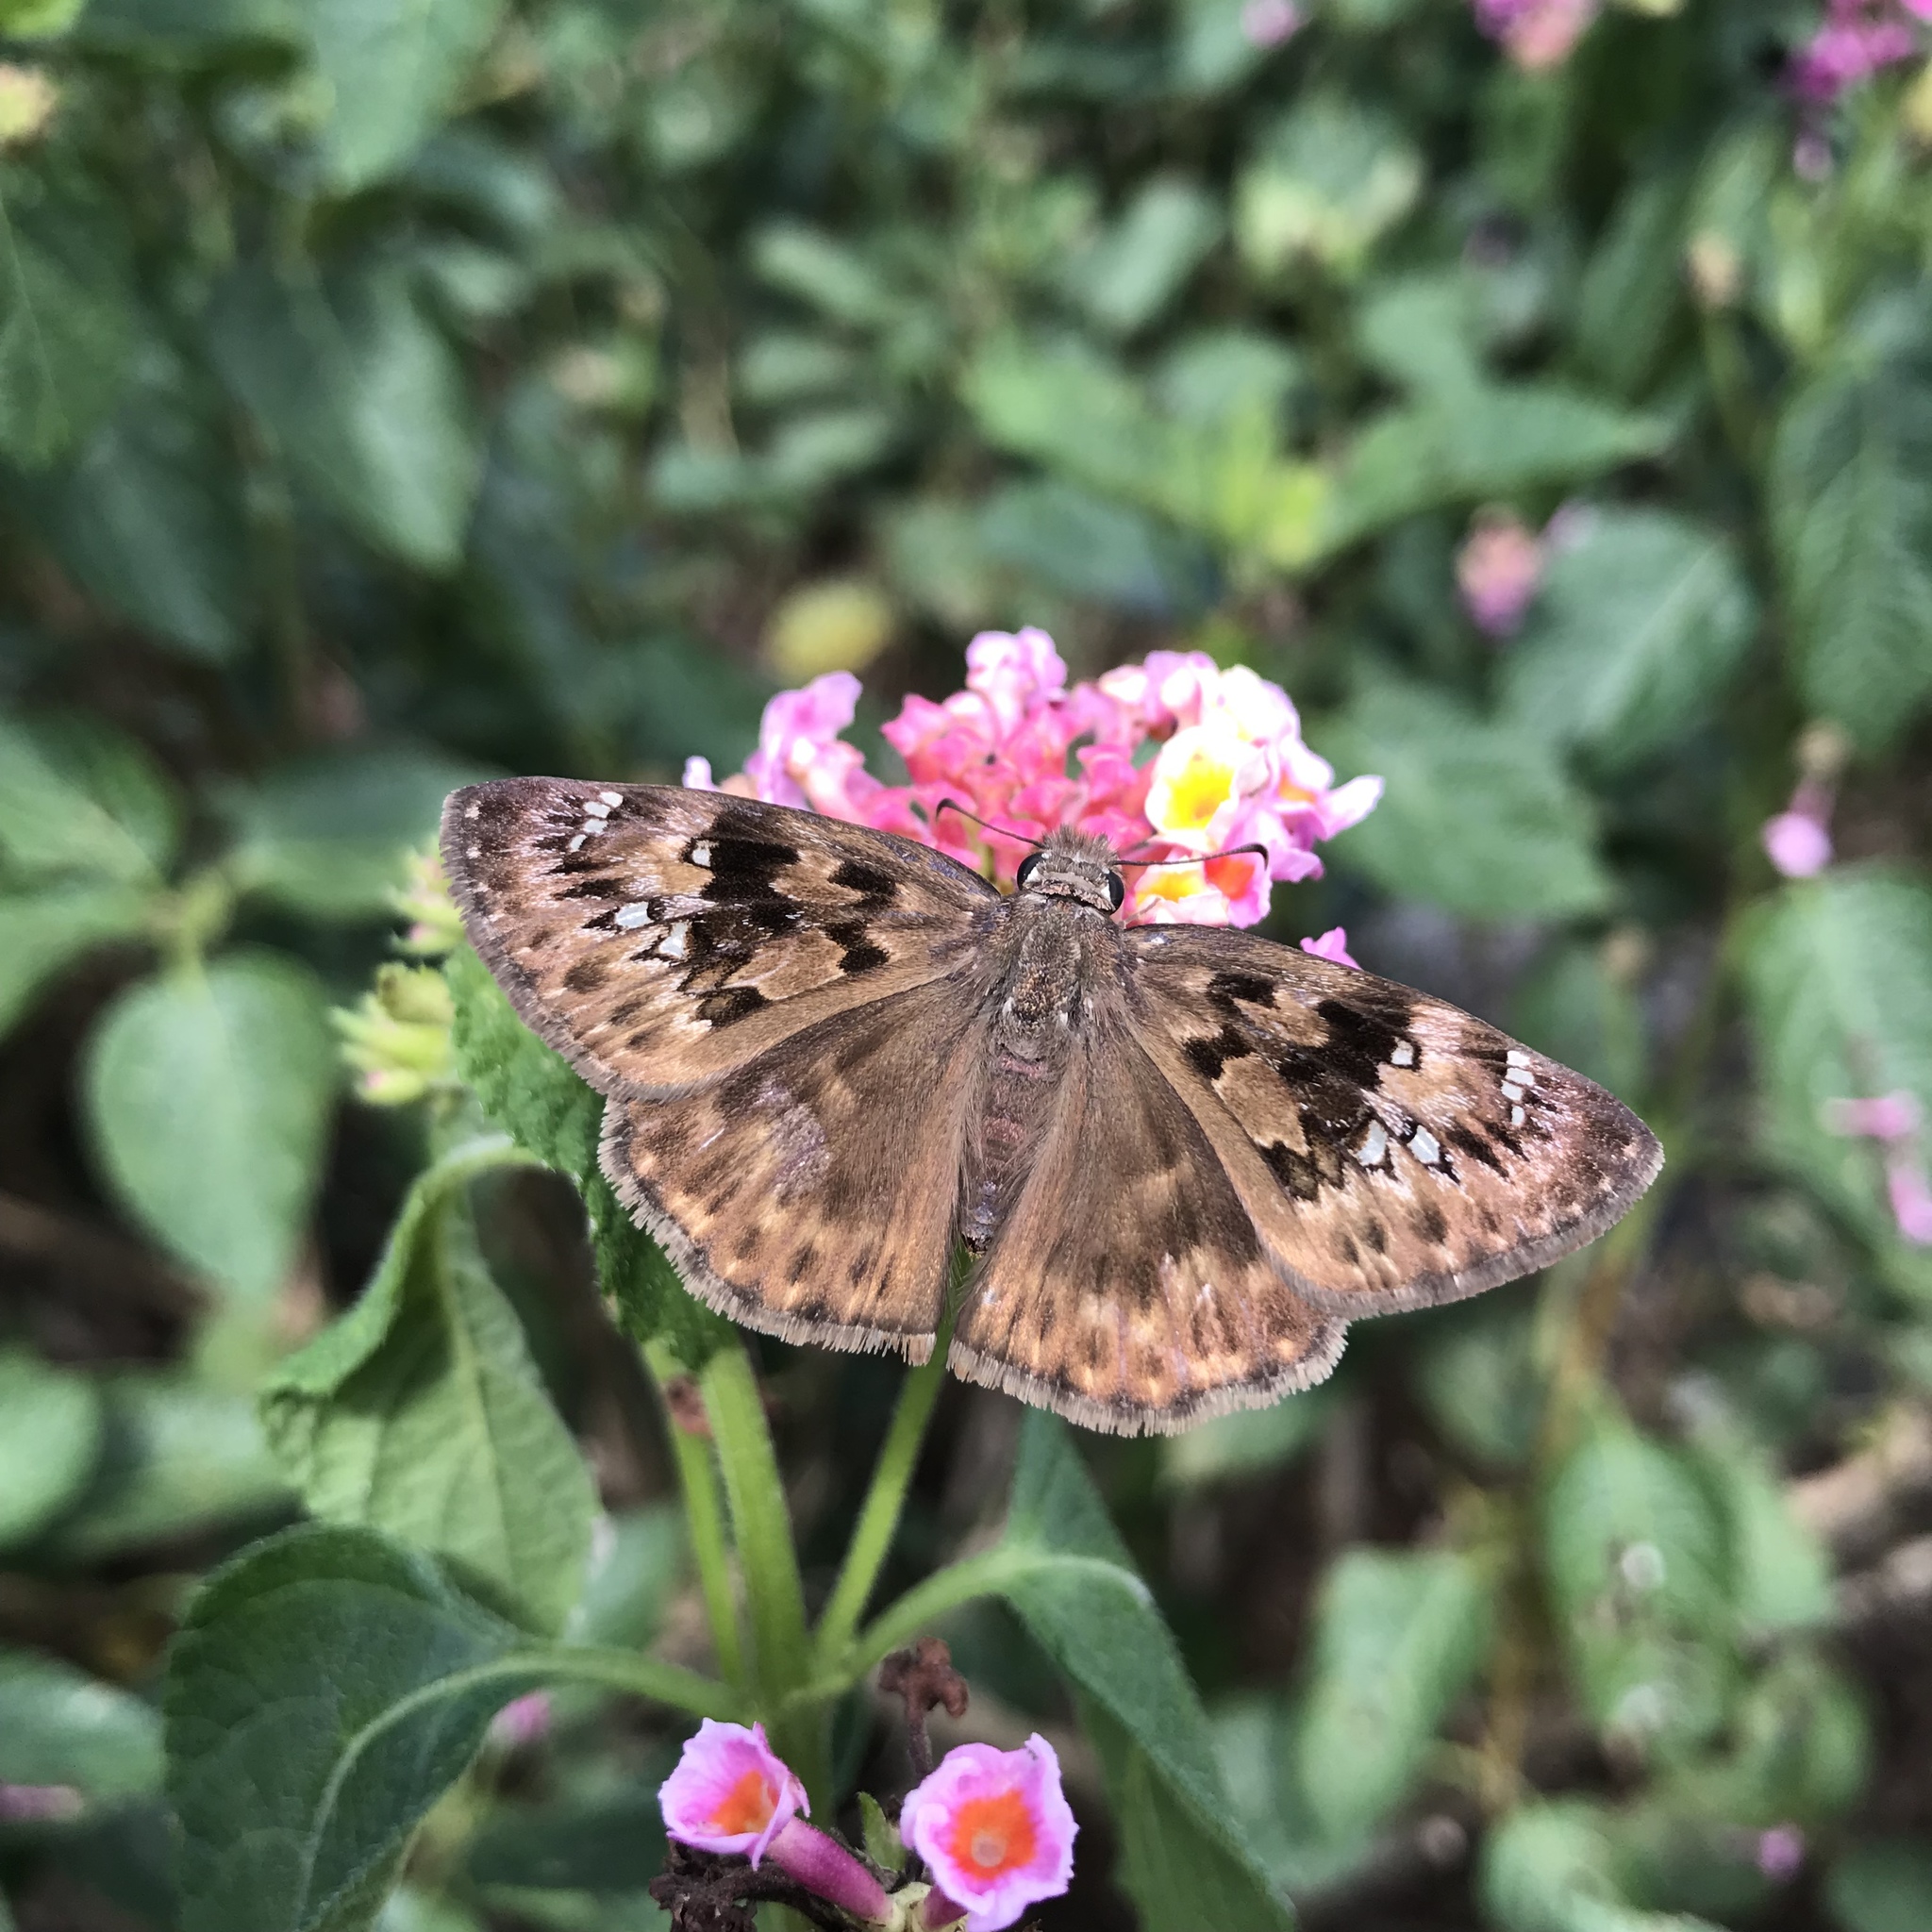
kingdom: Animalia
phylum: Arthropoda
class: Insecta
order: Lepidoptera
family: Hesperiidae
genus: Erynnis
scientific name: Erynnis horatius
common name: Horace's duskywing
